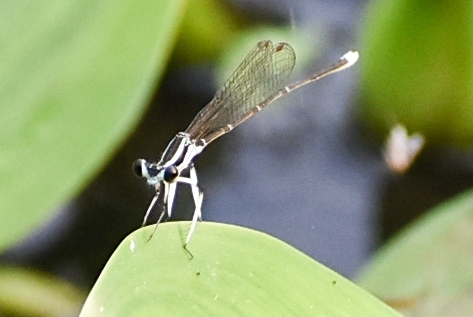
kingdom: Animalia
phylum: Arthropoda
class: Insecta
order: Odonata
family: Platycnemididae
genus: Pseudocopera
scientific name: Pseudocopera ciliata
